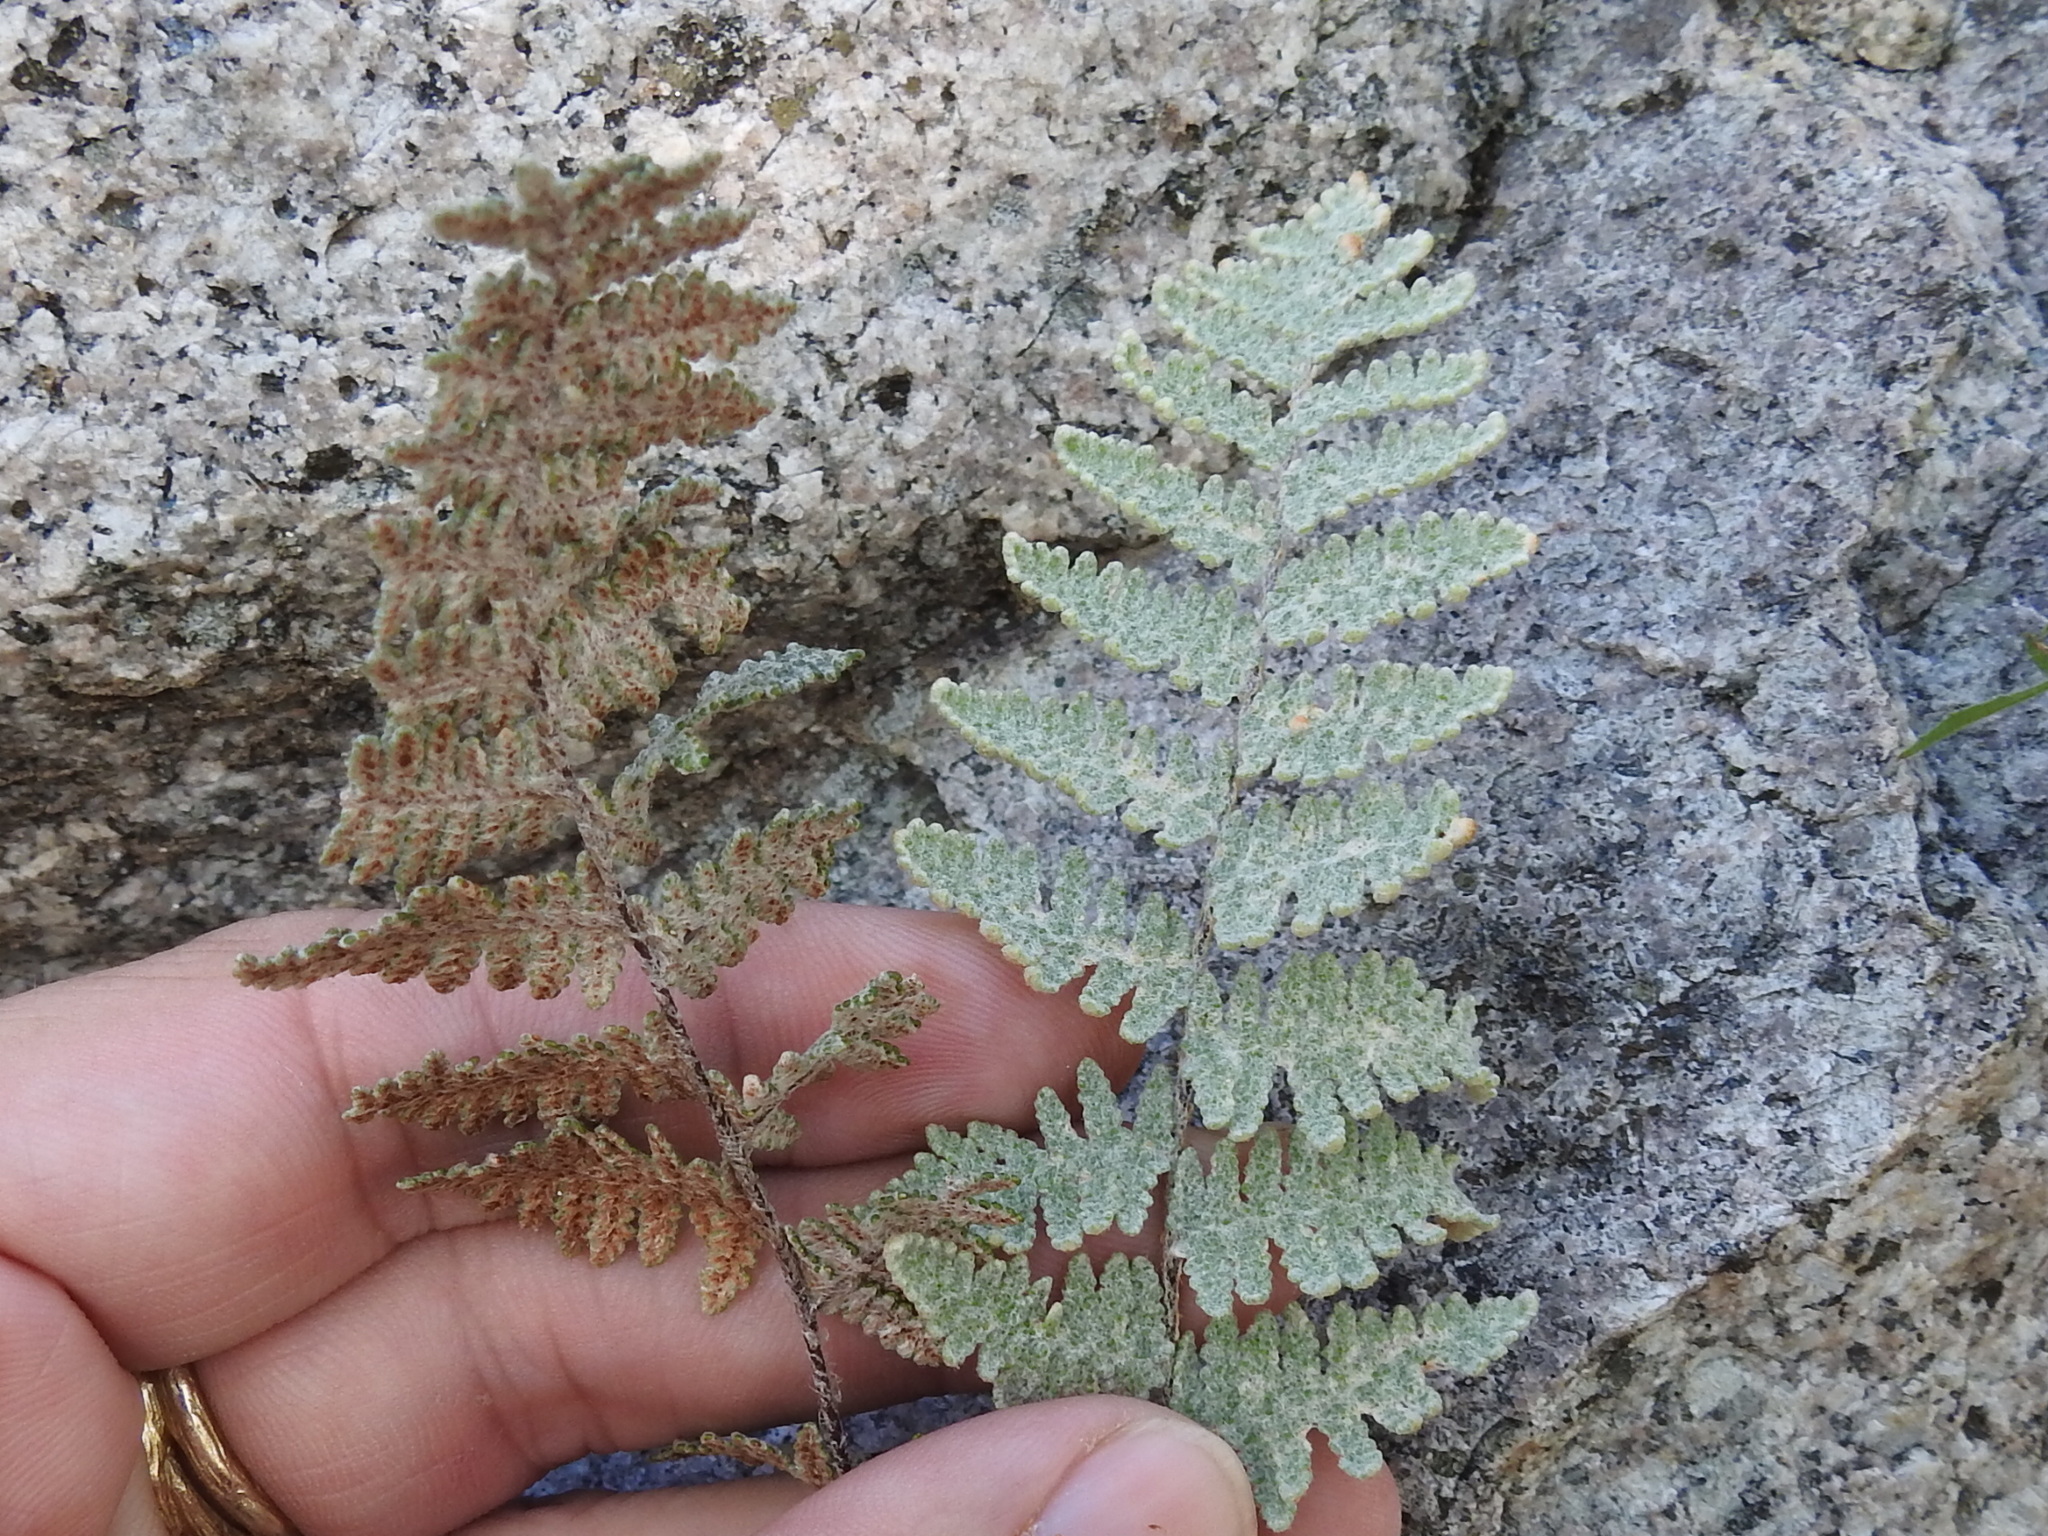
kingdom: Plantae
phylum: Tracheophyta
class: Polypodiopsida
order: Polypodiales
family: Pteridaceae
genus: Myriopteris
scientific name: Myriopteris lindheimeri
